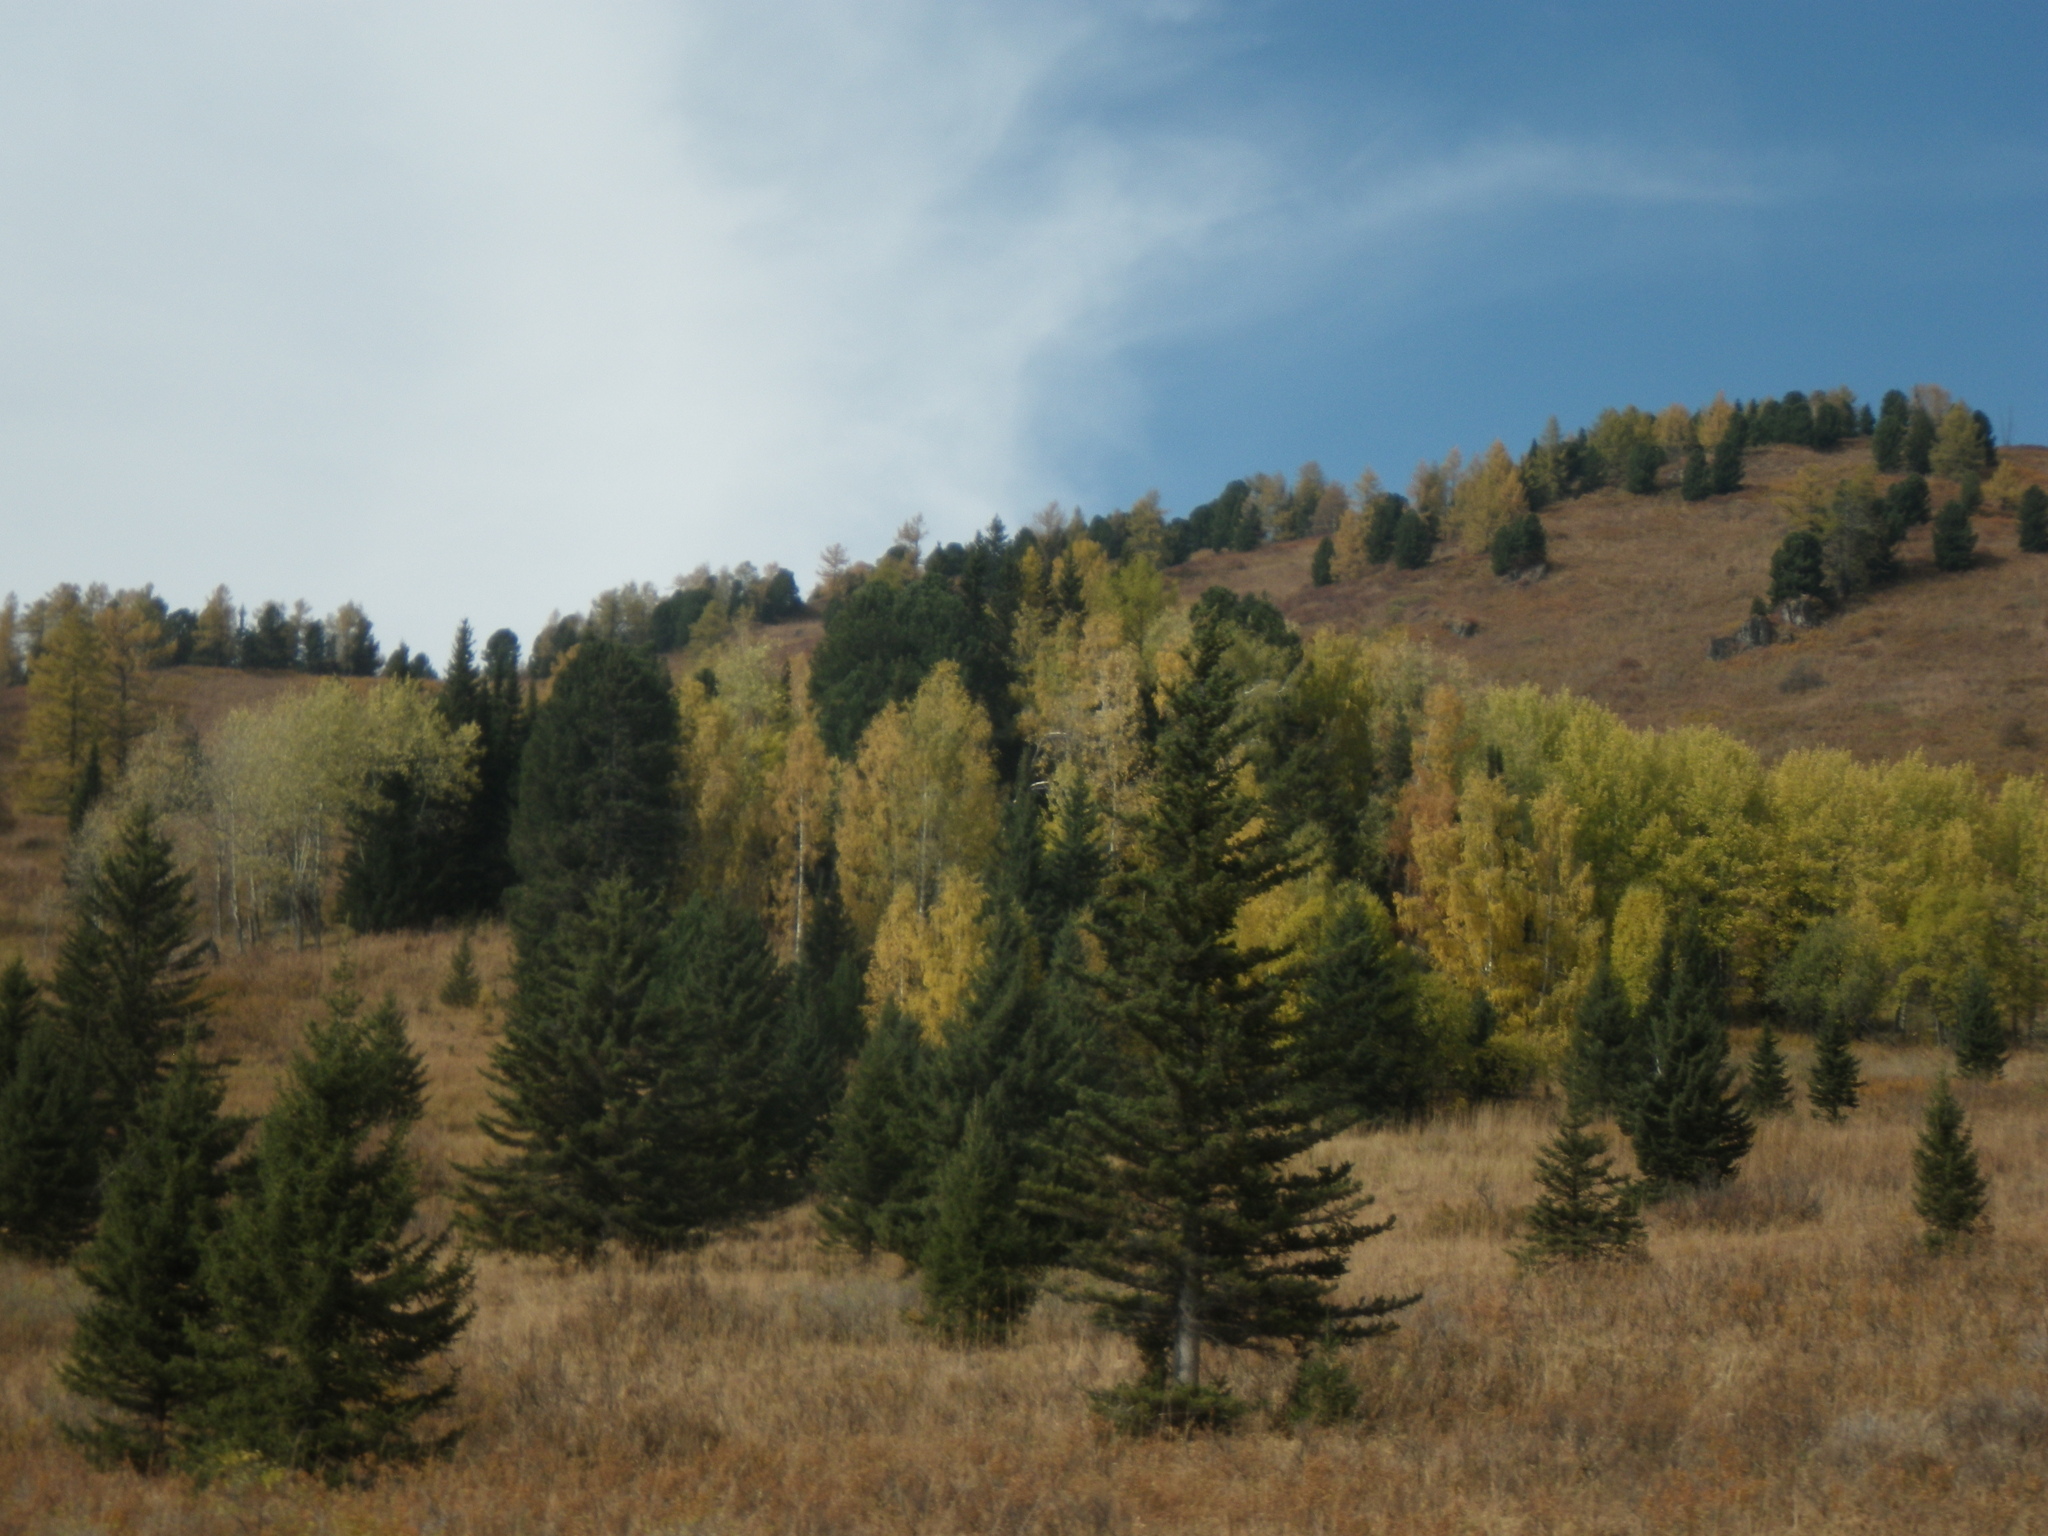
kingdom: Plantae
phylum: Tracheophyta
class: Pinopsida
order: Pinales
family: Pinaceae
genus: Picea
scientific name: Picea obovata
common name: Siberian spruce
